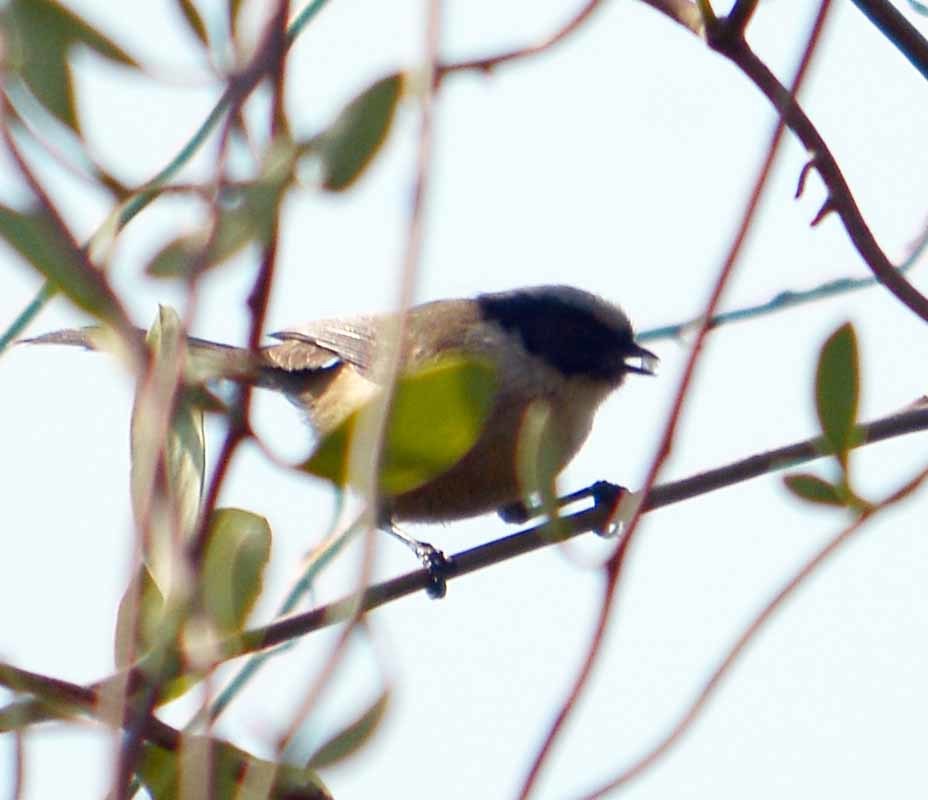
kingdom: Animalia
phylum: Chordata
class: Aves
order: Passeriformes
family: Aegithalidae
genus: Psaltriparus
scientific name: Psaltriparus minimus
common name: American bushtit
